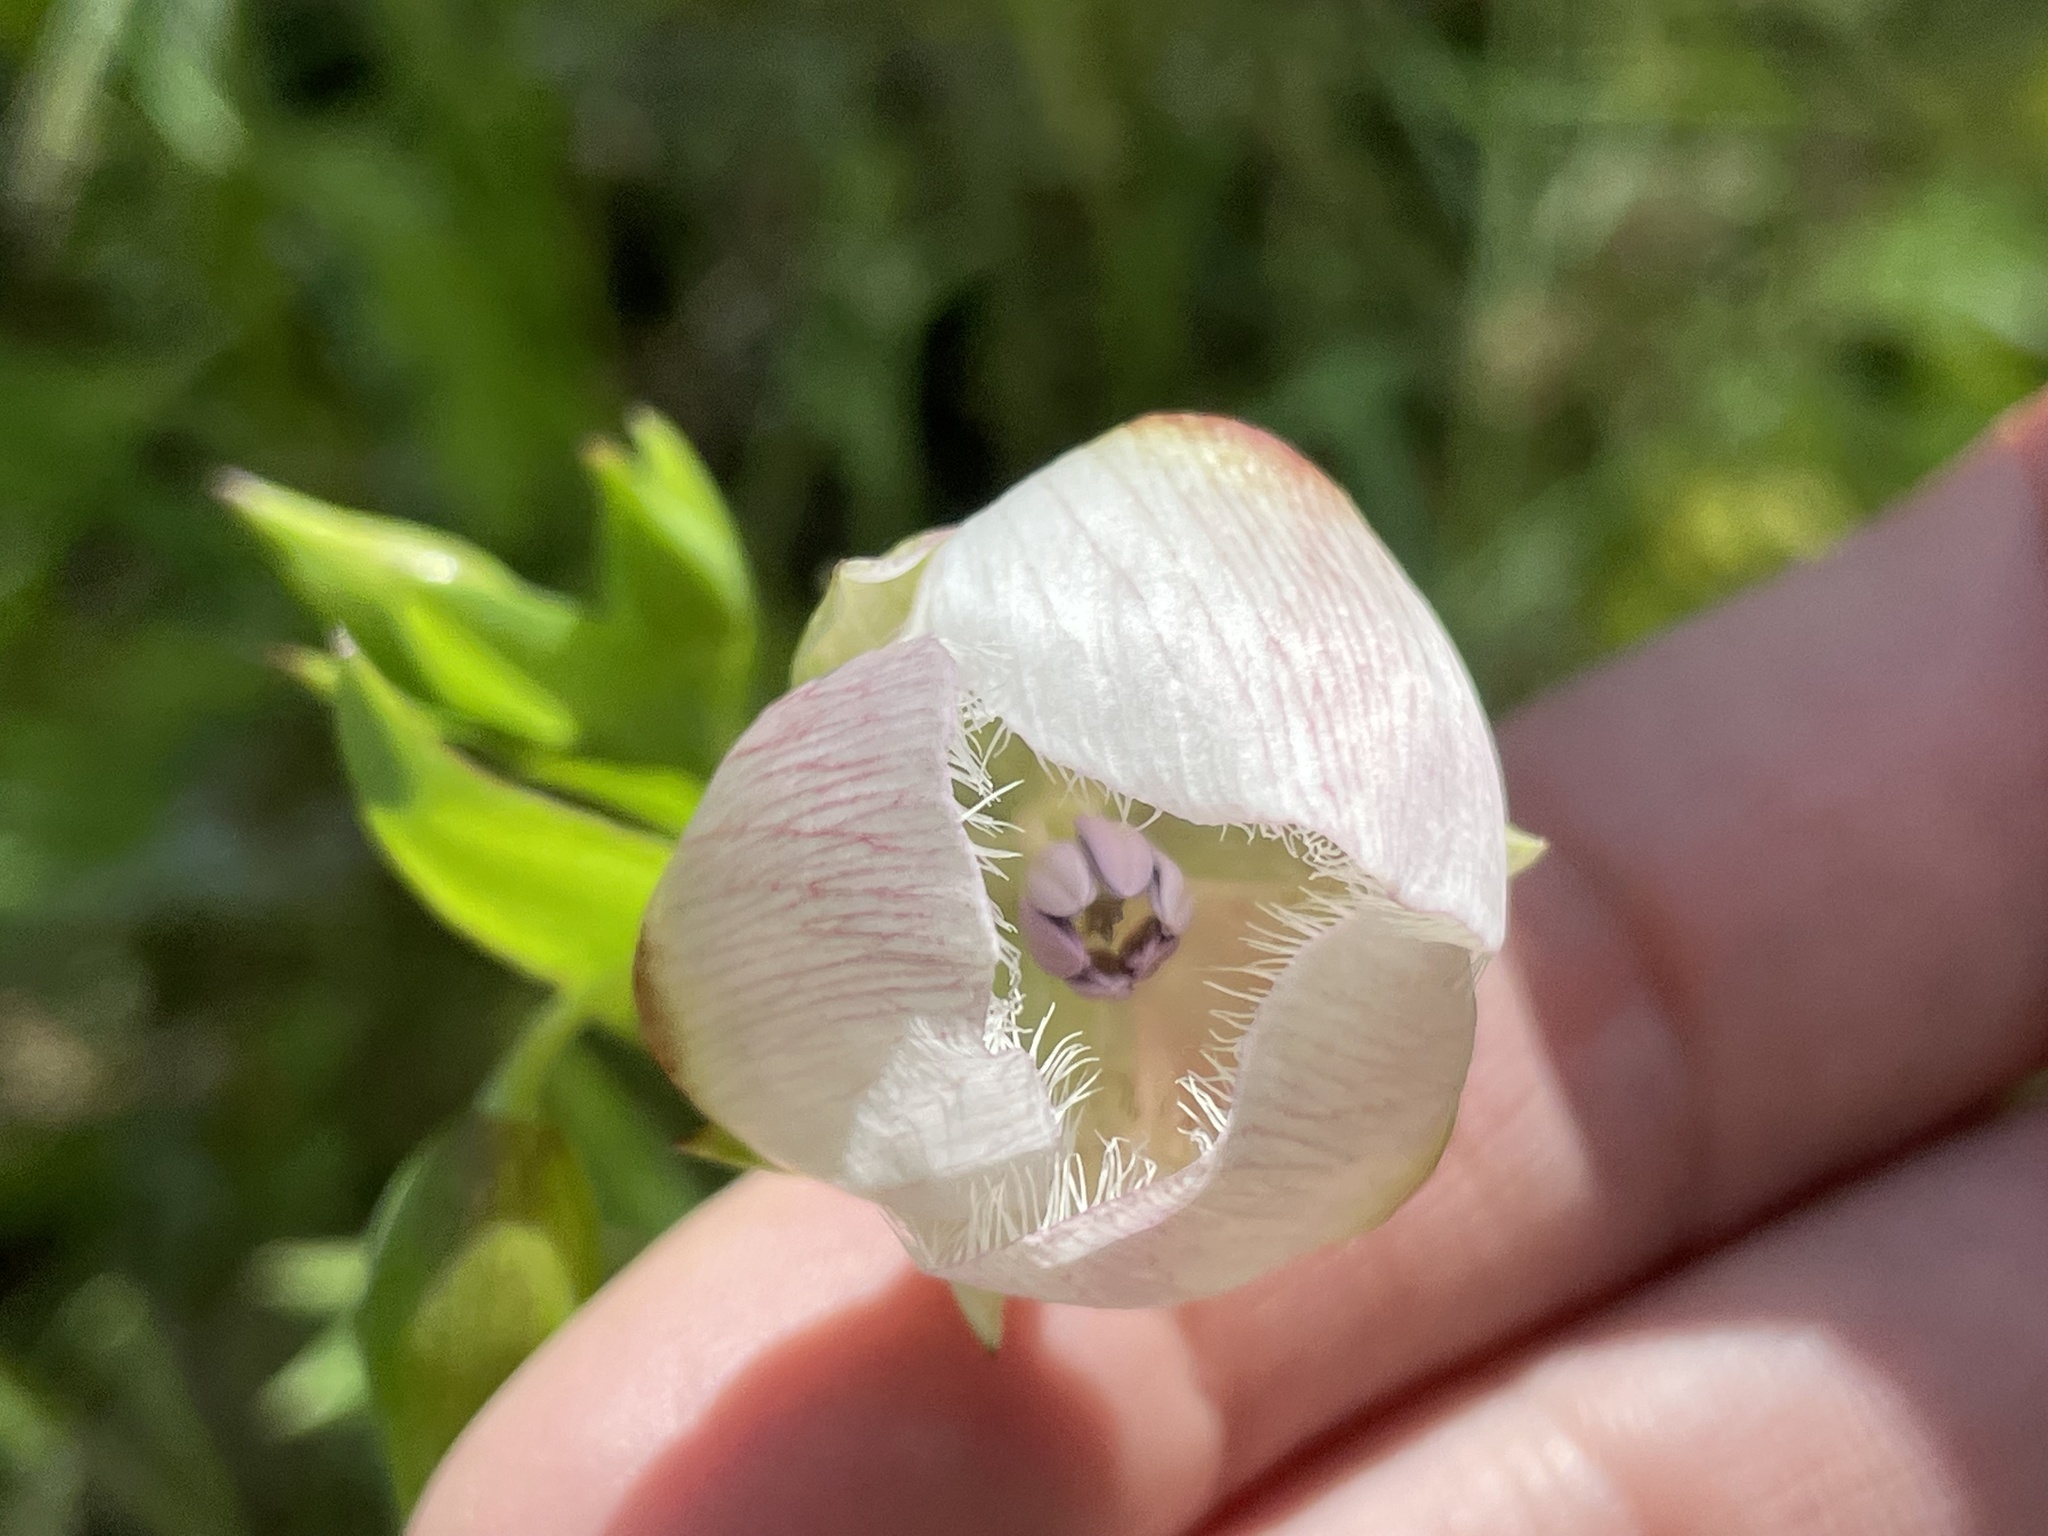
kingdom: Plantae
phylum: Tracheophyta
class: Liliopsida
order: Liliales
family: Liliaceae
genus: Calochortus
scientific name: Calochortus albus
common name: Fairy-lantern
